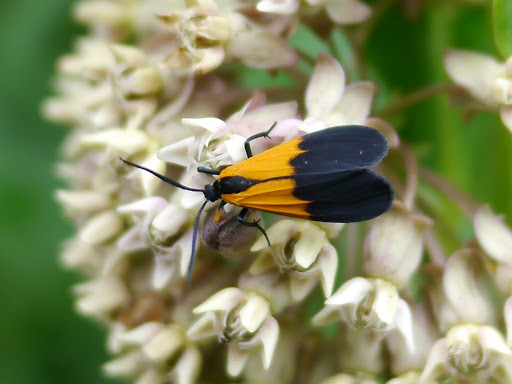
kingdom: Animalia
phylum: Arthropoda
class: Insecta
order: Lepidoptera
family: Erebidae
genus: Lycomorpha
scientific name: Lycomorpha pholus
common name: Black-and-yellow lichen moth
